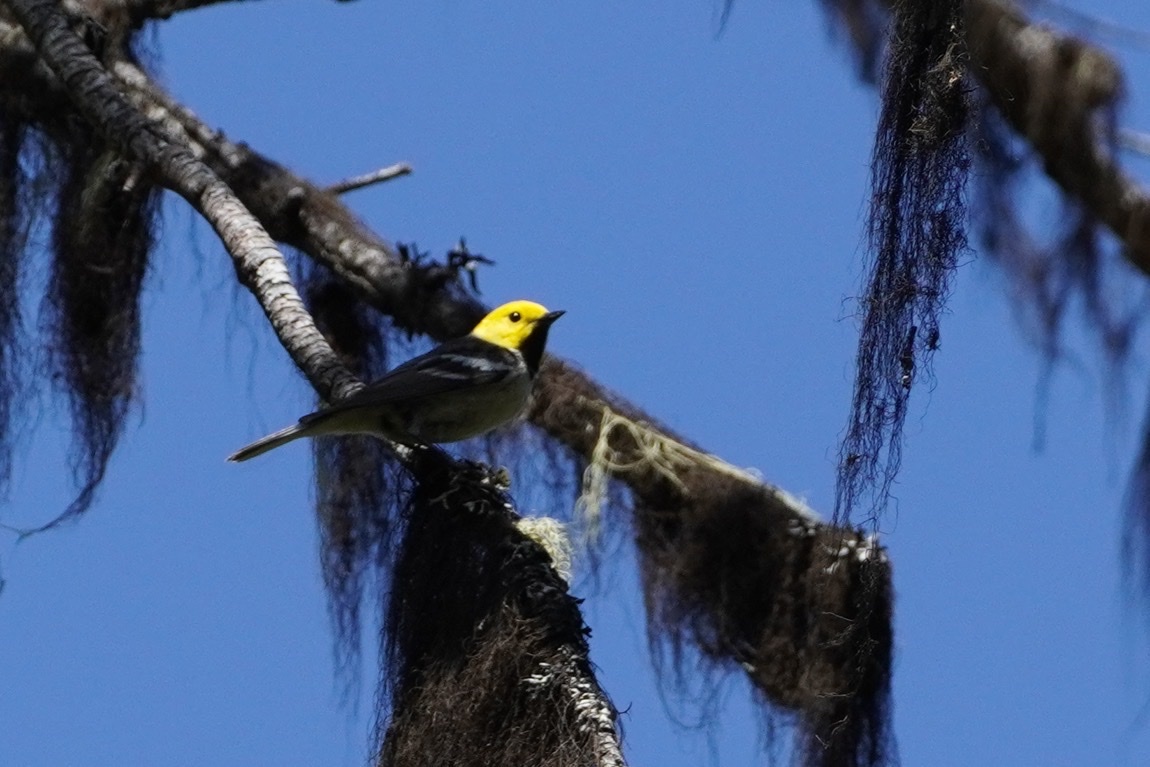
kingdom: Animalia
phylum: Chordata
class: Aves
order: Passeriformes
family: Parulidae
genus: Setophaga
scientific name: Setophaga occidentalis
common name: Hermit warbler
